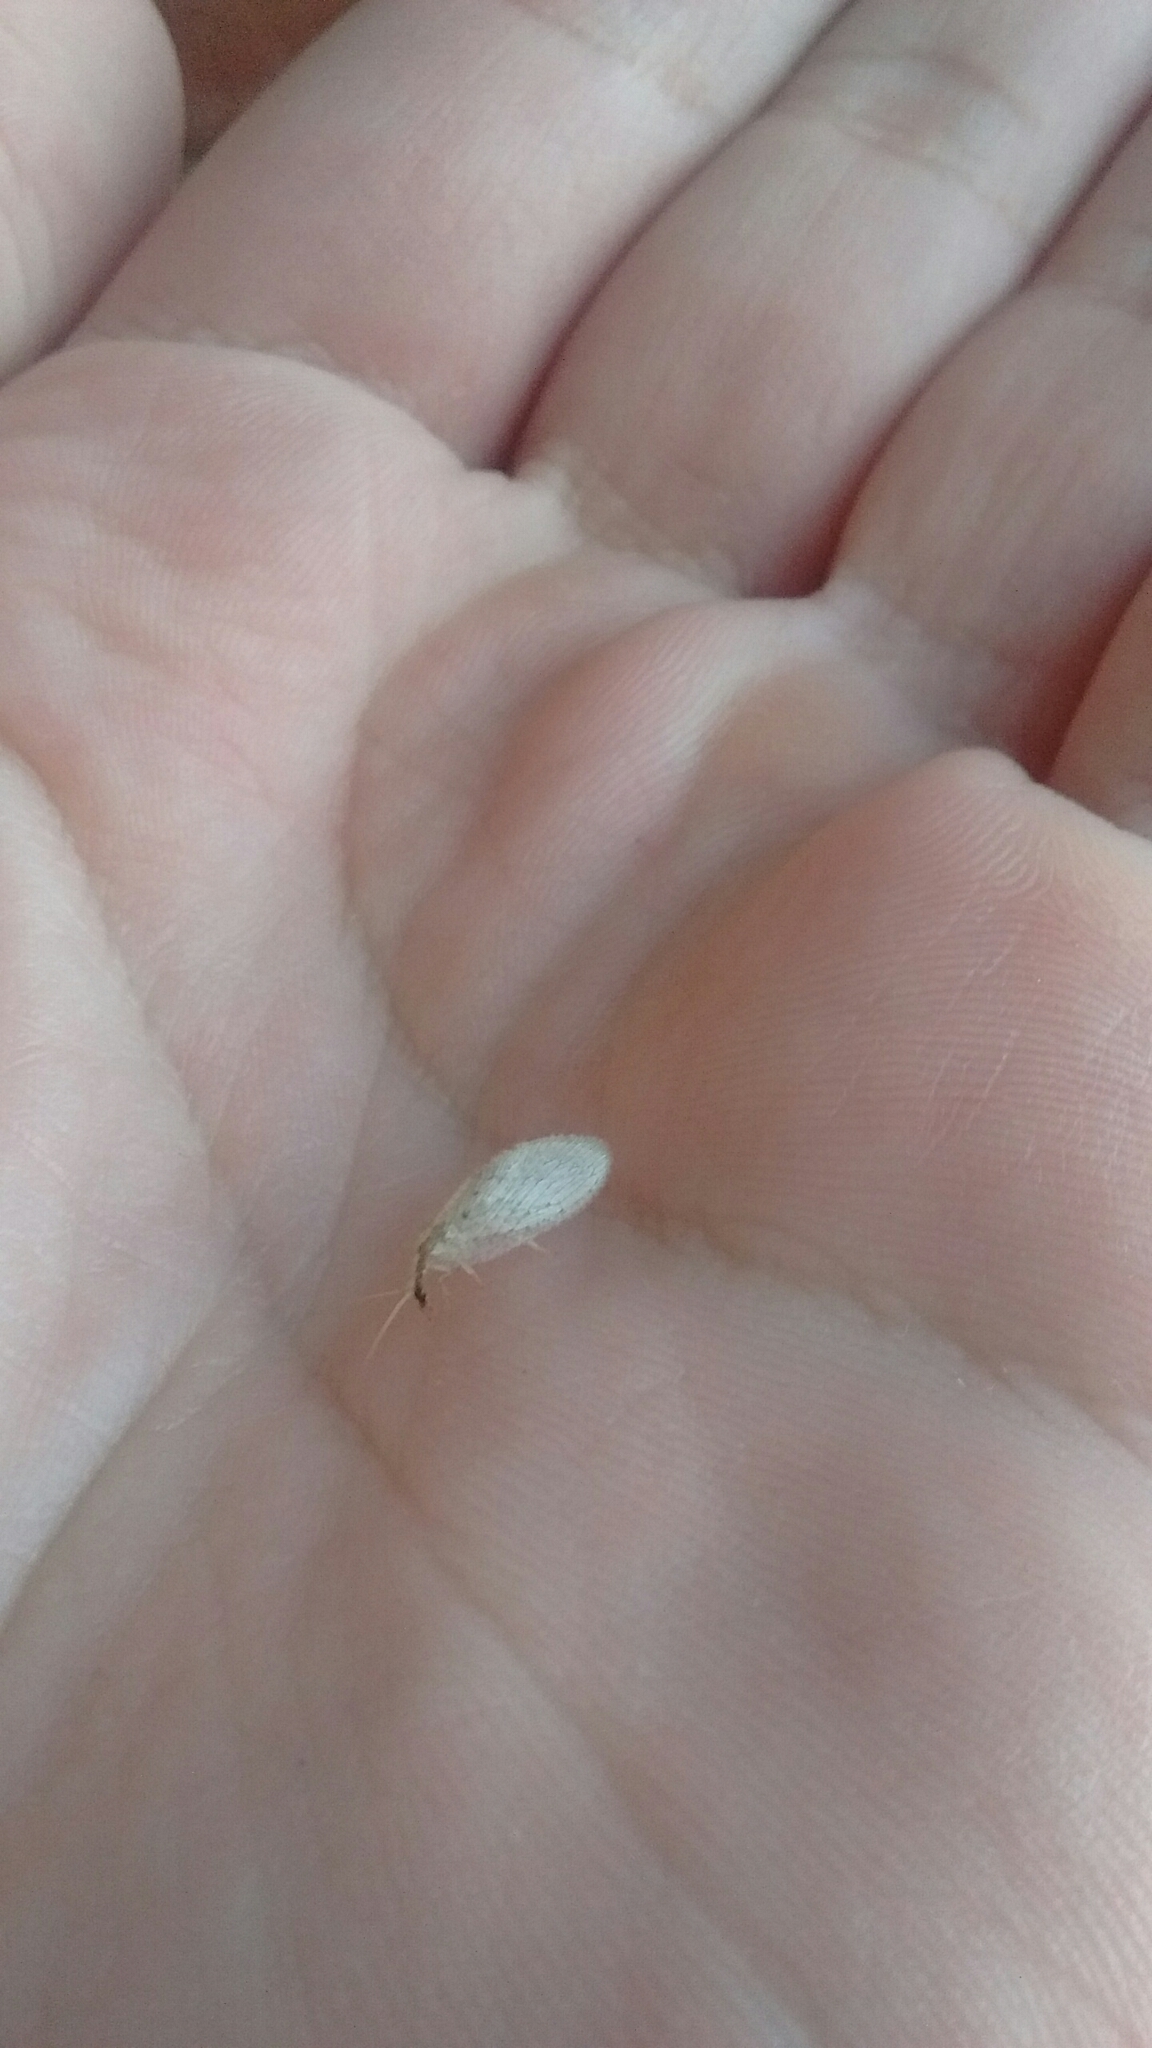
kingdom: Animalia
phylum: Arthropoda
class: Insecta
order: Neuroptera
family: Hemerobiidae
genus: Hemerobius
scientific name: Hemerobius bolivari
